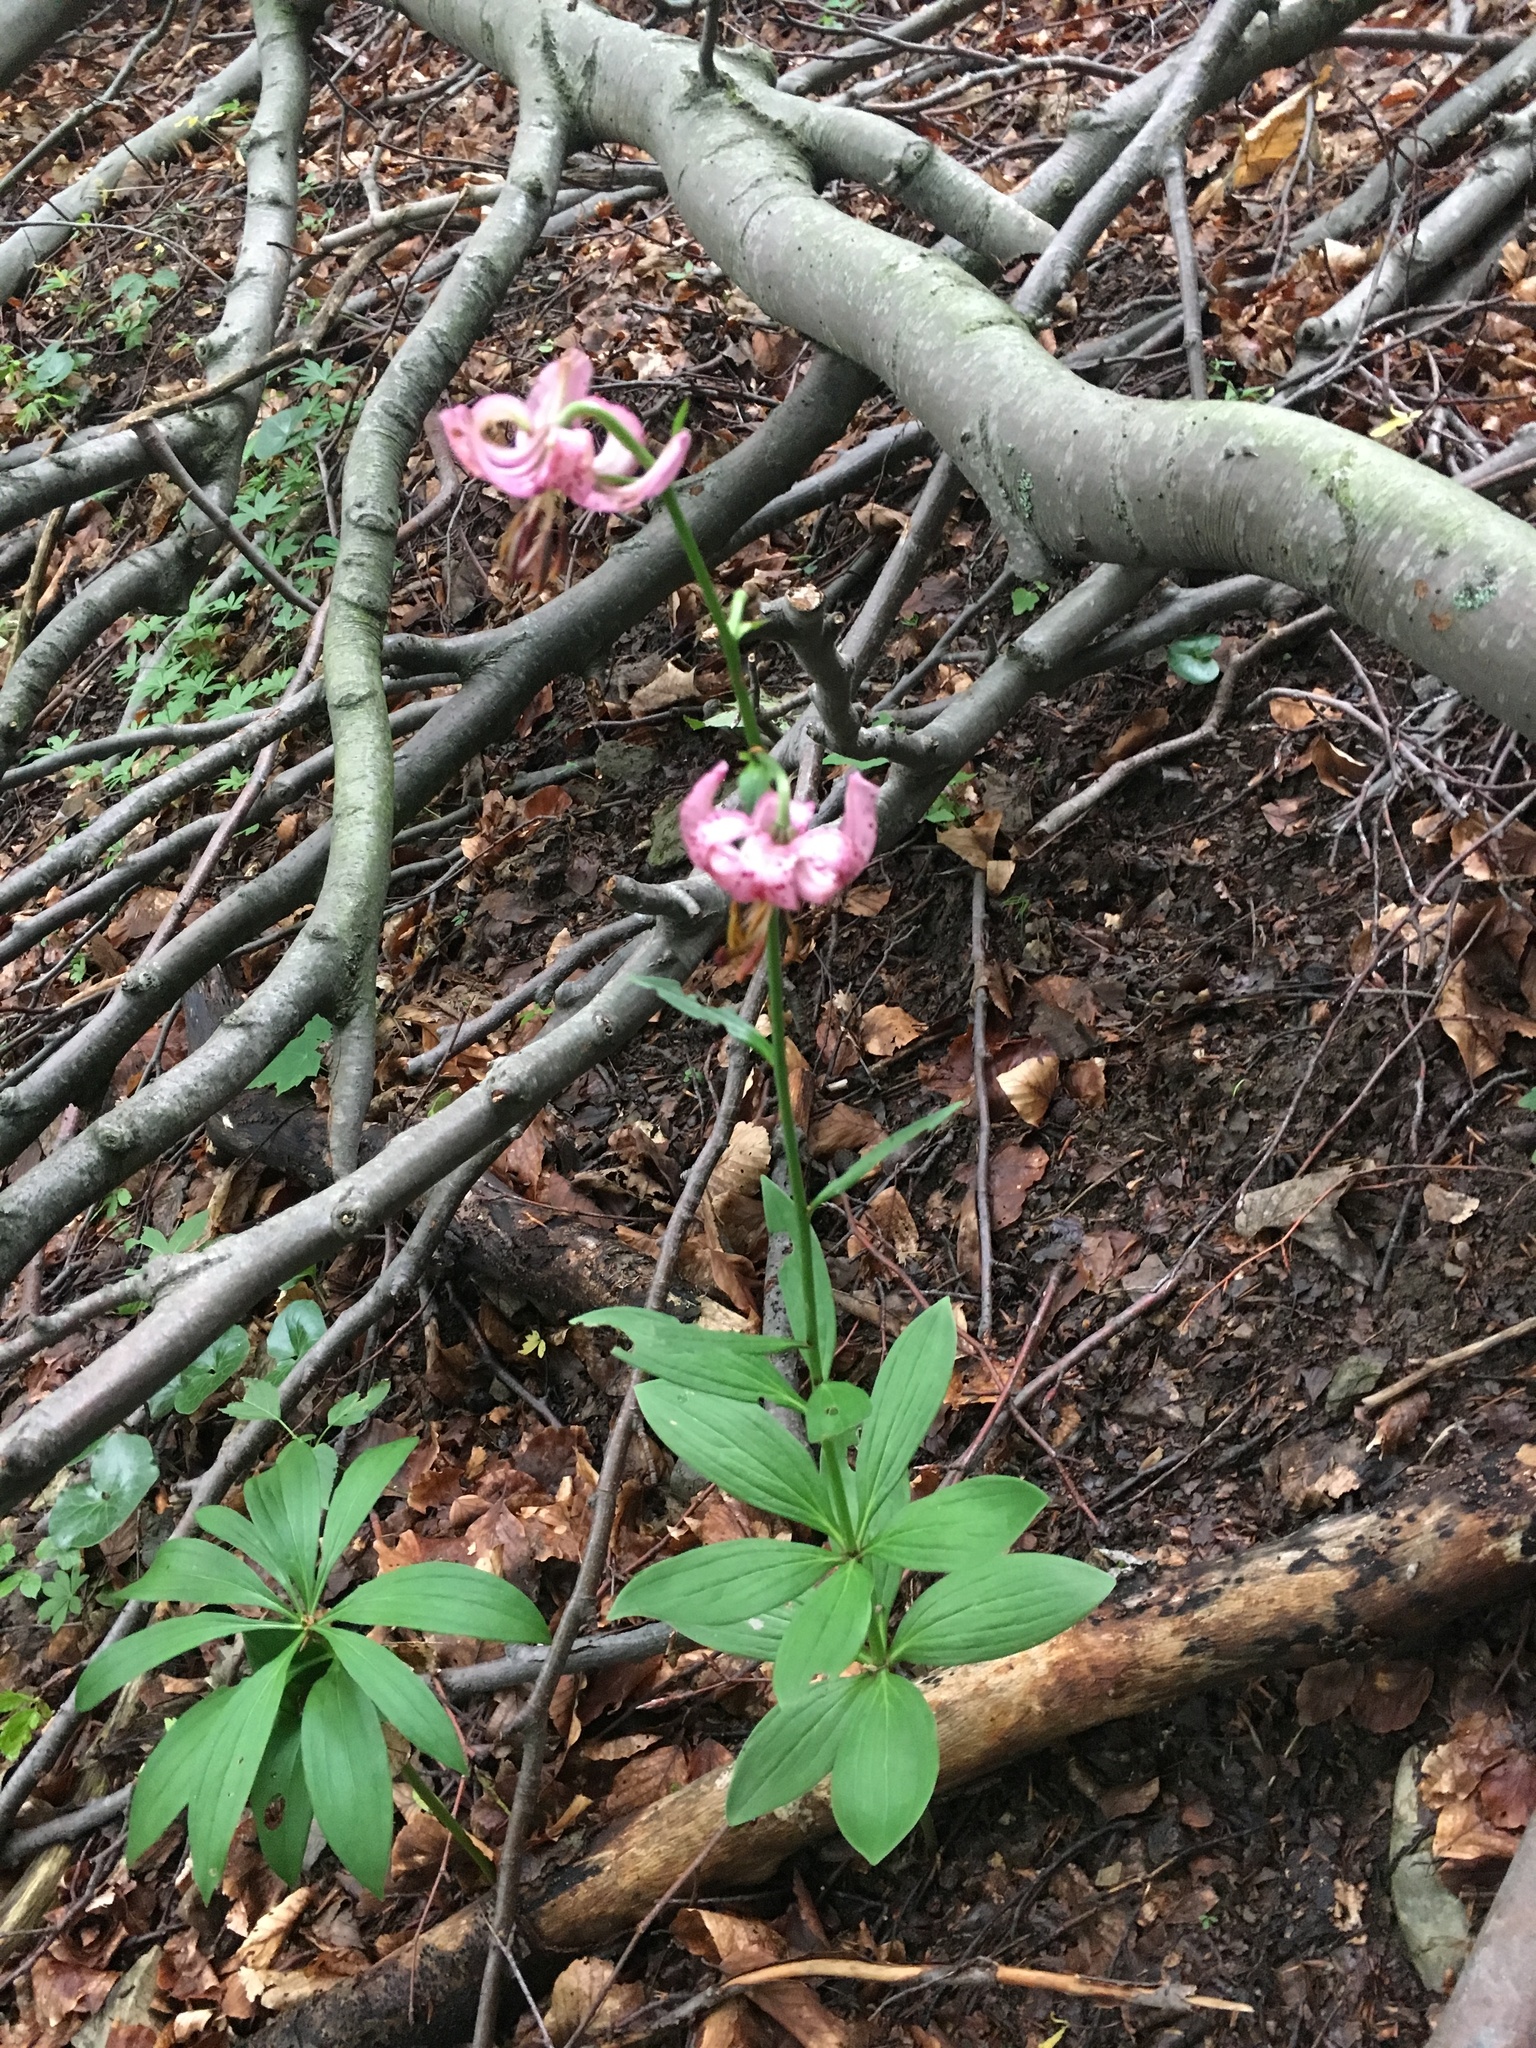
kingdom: Plantae
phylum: Tracheophyta
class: Liliopsida
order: Liliales
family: Liliaceae
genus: Lilium
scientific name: Lilium martagon
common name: Martagon lily
